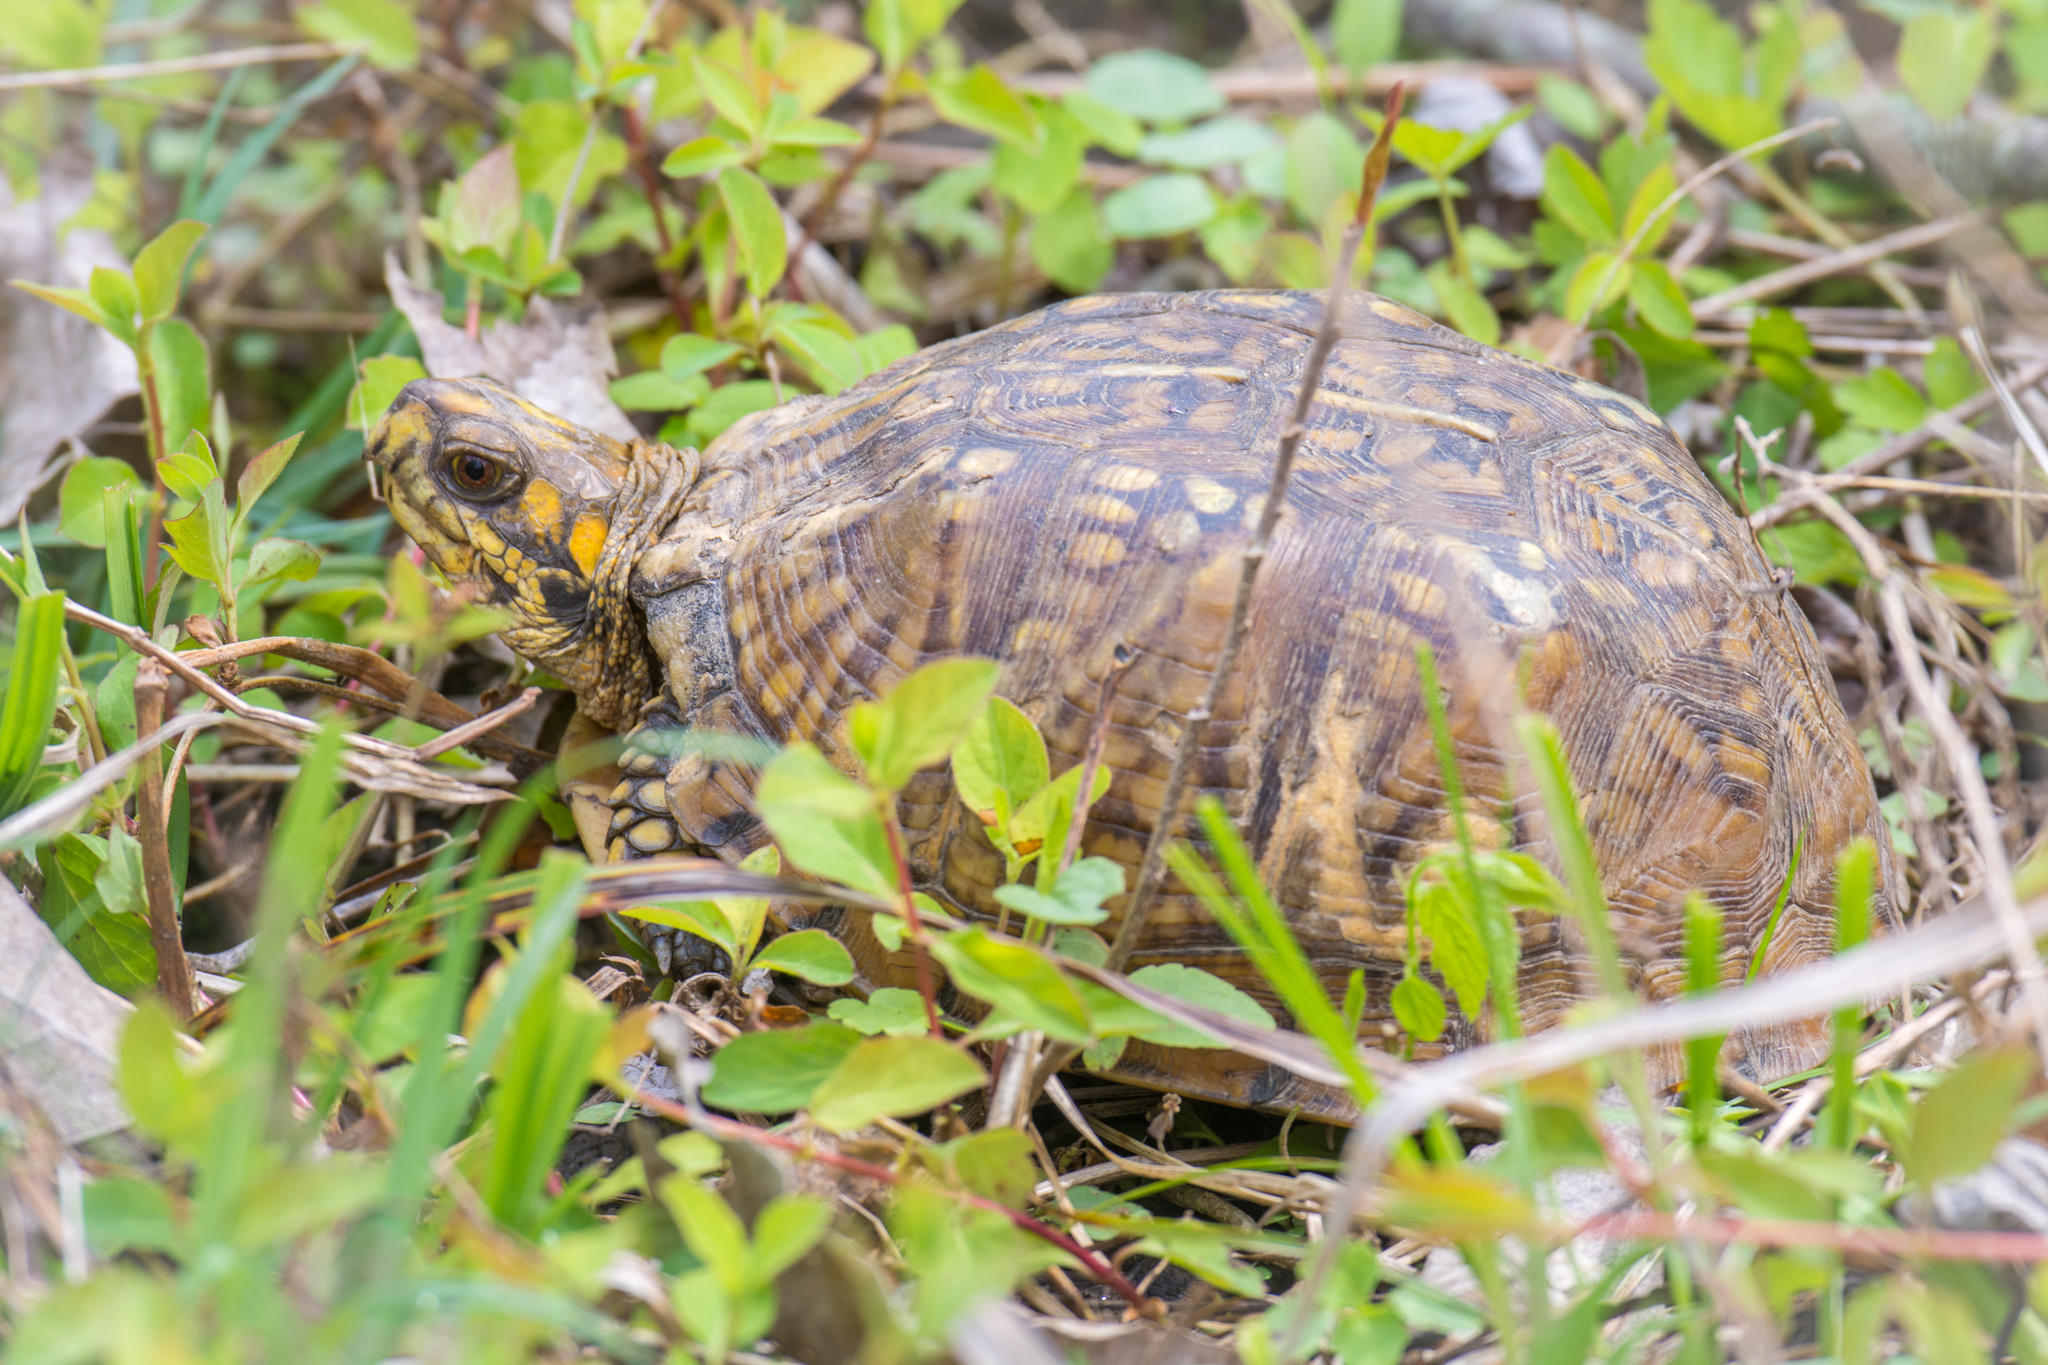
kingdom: Animalia
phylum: Chordata
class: Testudines
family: Emydidae
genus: Terrapene
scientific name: Terrapene carolina
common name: Common box turtle
